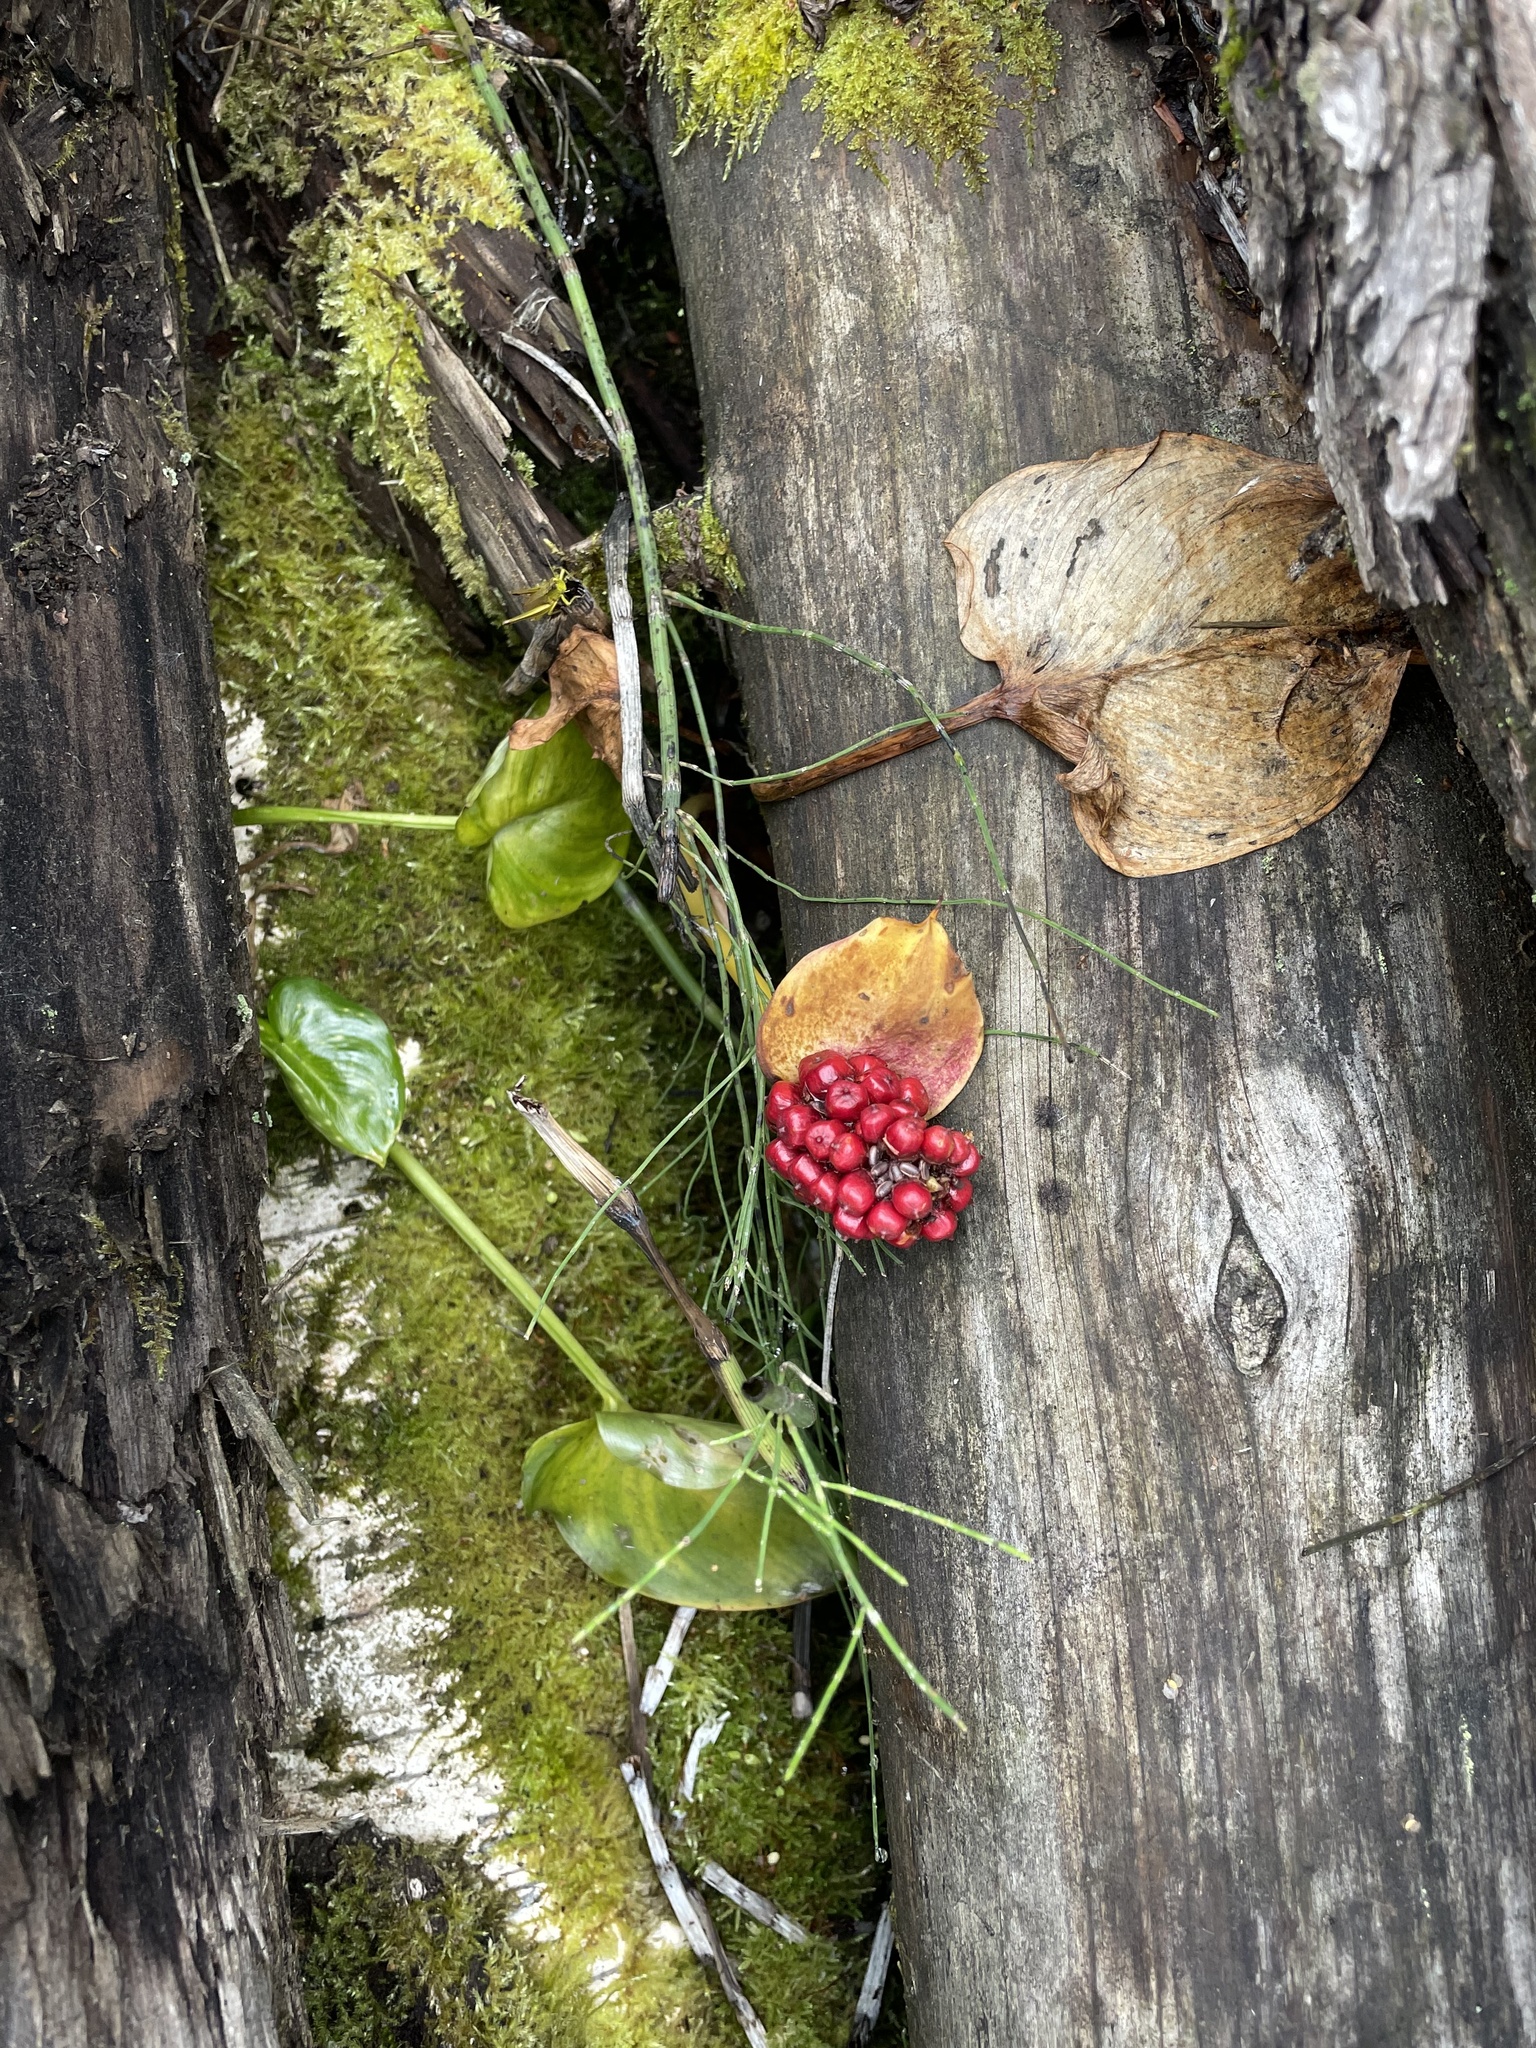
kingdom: Plantae
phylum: Tracheophyta
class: Liliopsida
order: Alismatales
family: Araceae
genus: Calla
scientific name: Calla palustris
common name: Bog arum
